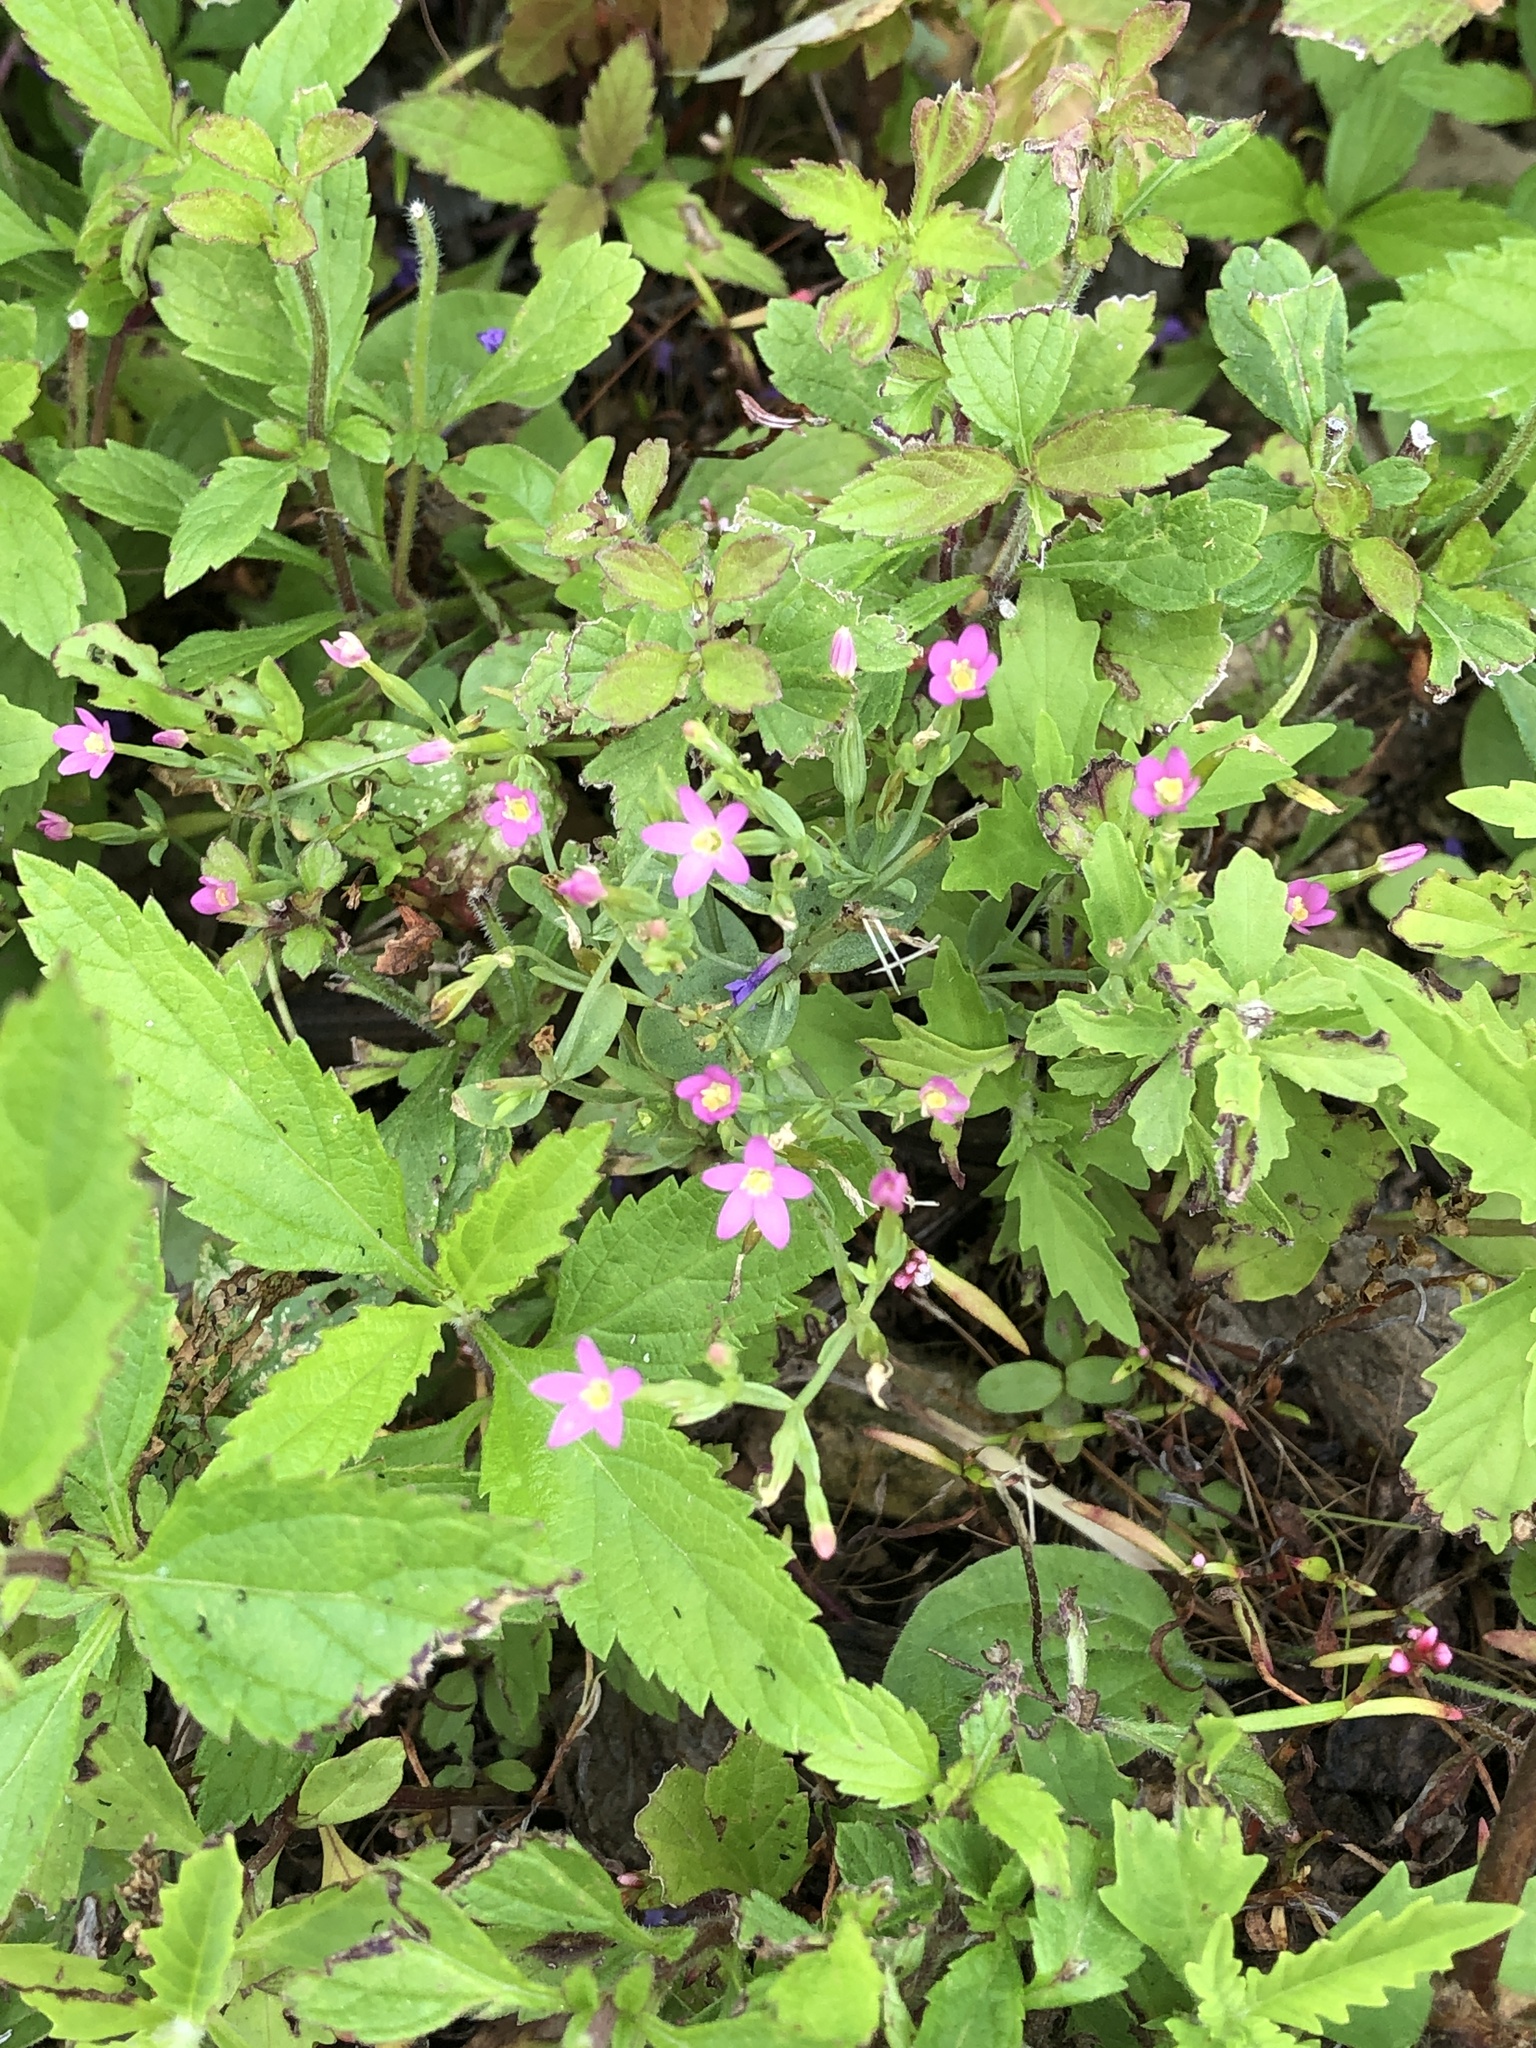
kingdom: Plantae
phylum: Tracheophyta
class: Magnoliopsida
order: Gentianales
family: Gentianaceae
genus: Centaurium
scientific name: Centaurium pulchellum
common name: Lesser centaury
